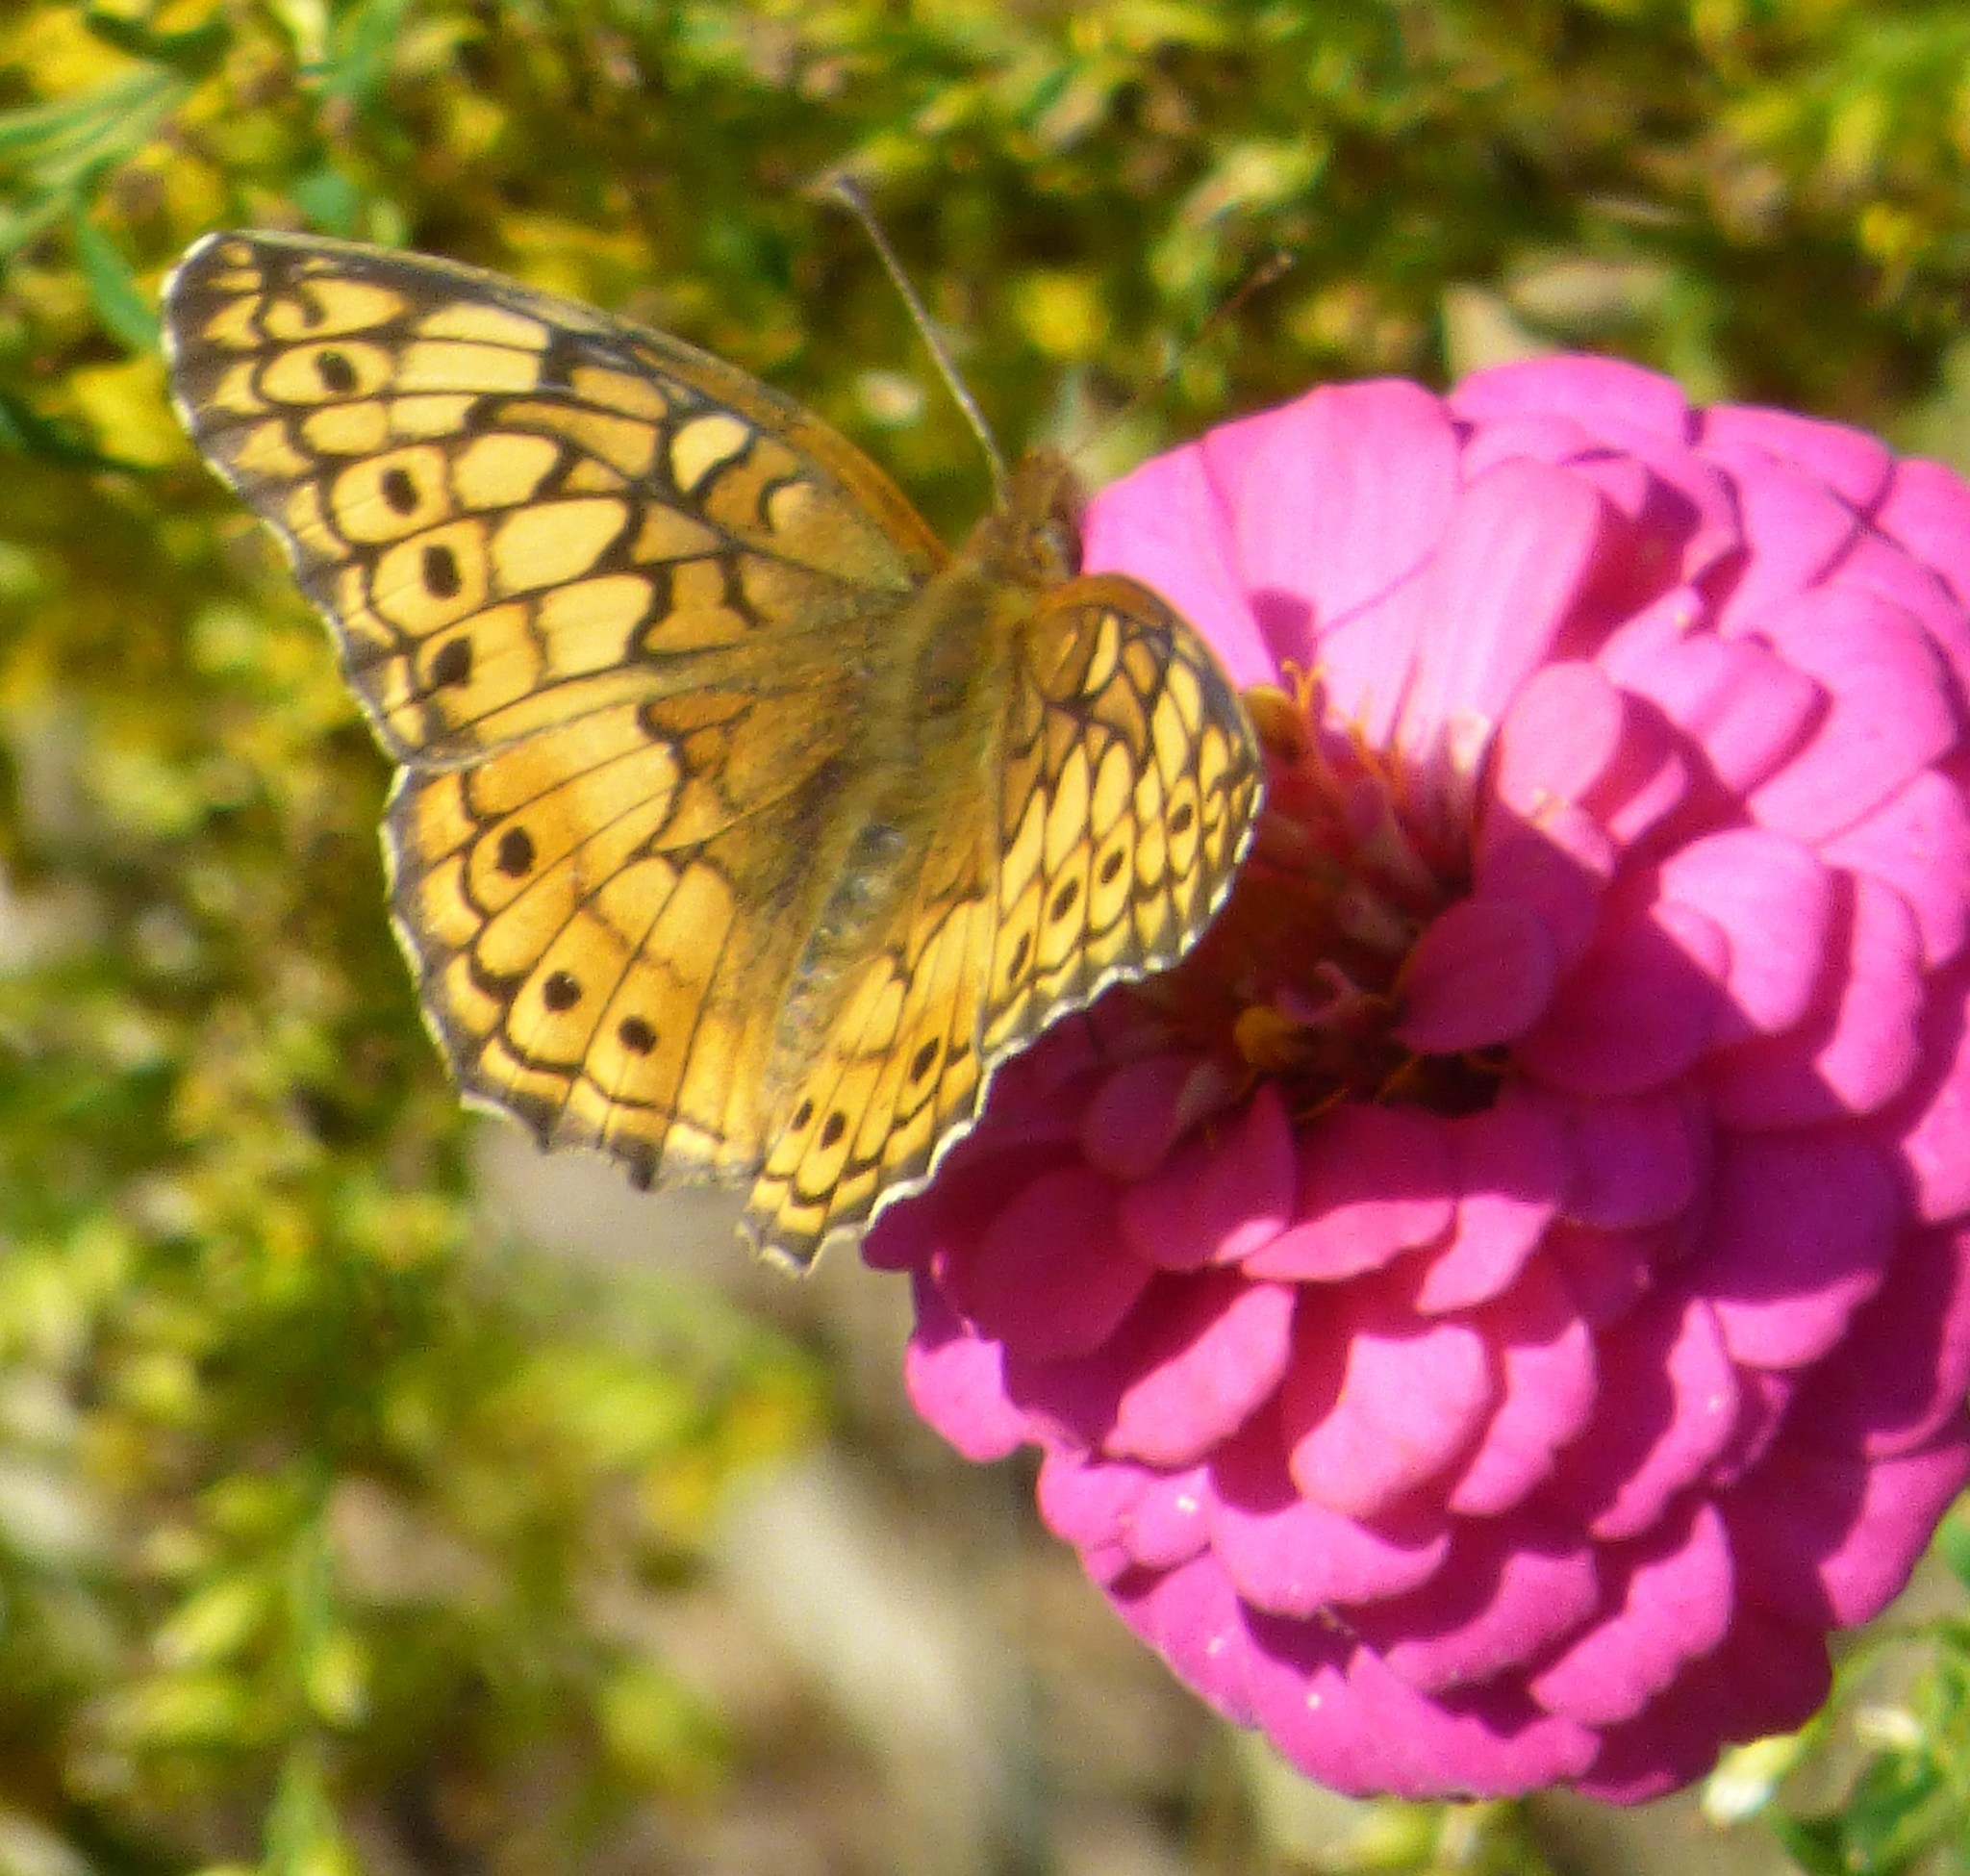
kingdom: Animalia
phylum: Arthropoda
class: Insecta
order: Lepidoptera
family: Nymphalidae
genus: Euptoieta
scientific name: Euptoieta claudia
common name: Variegated fritillary
